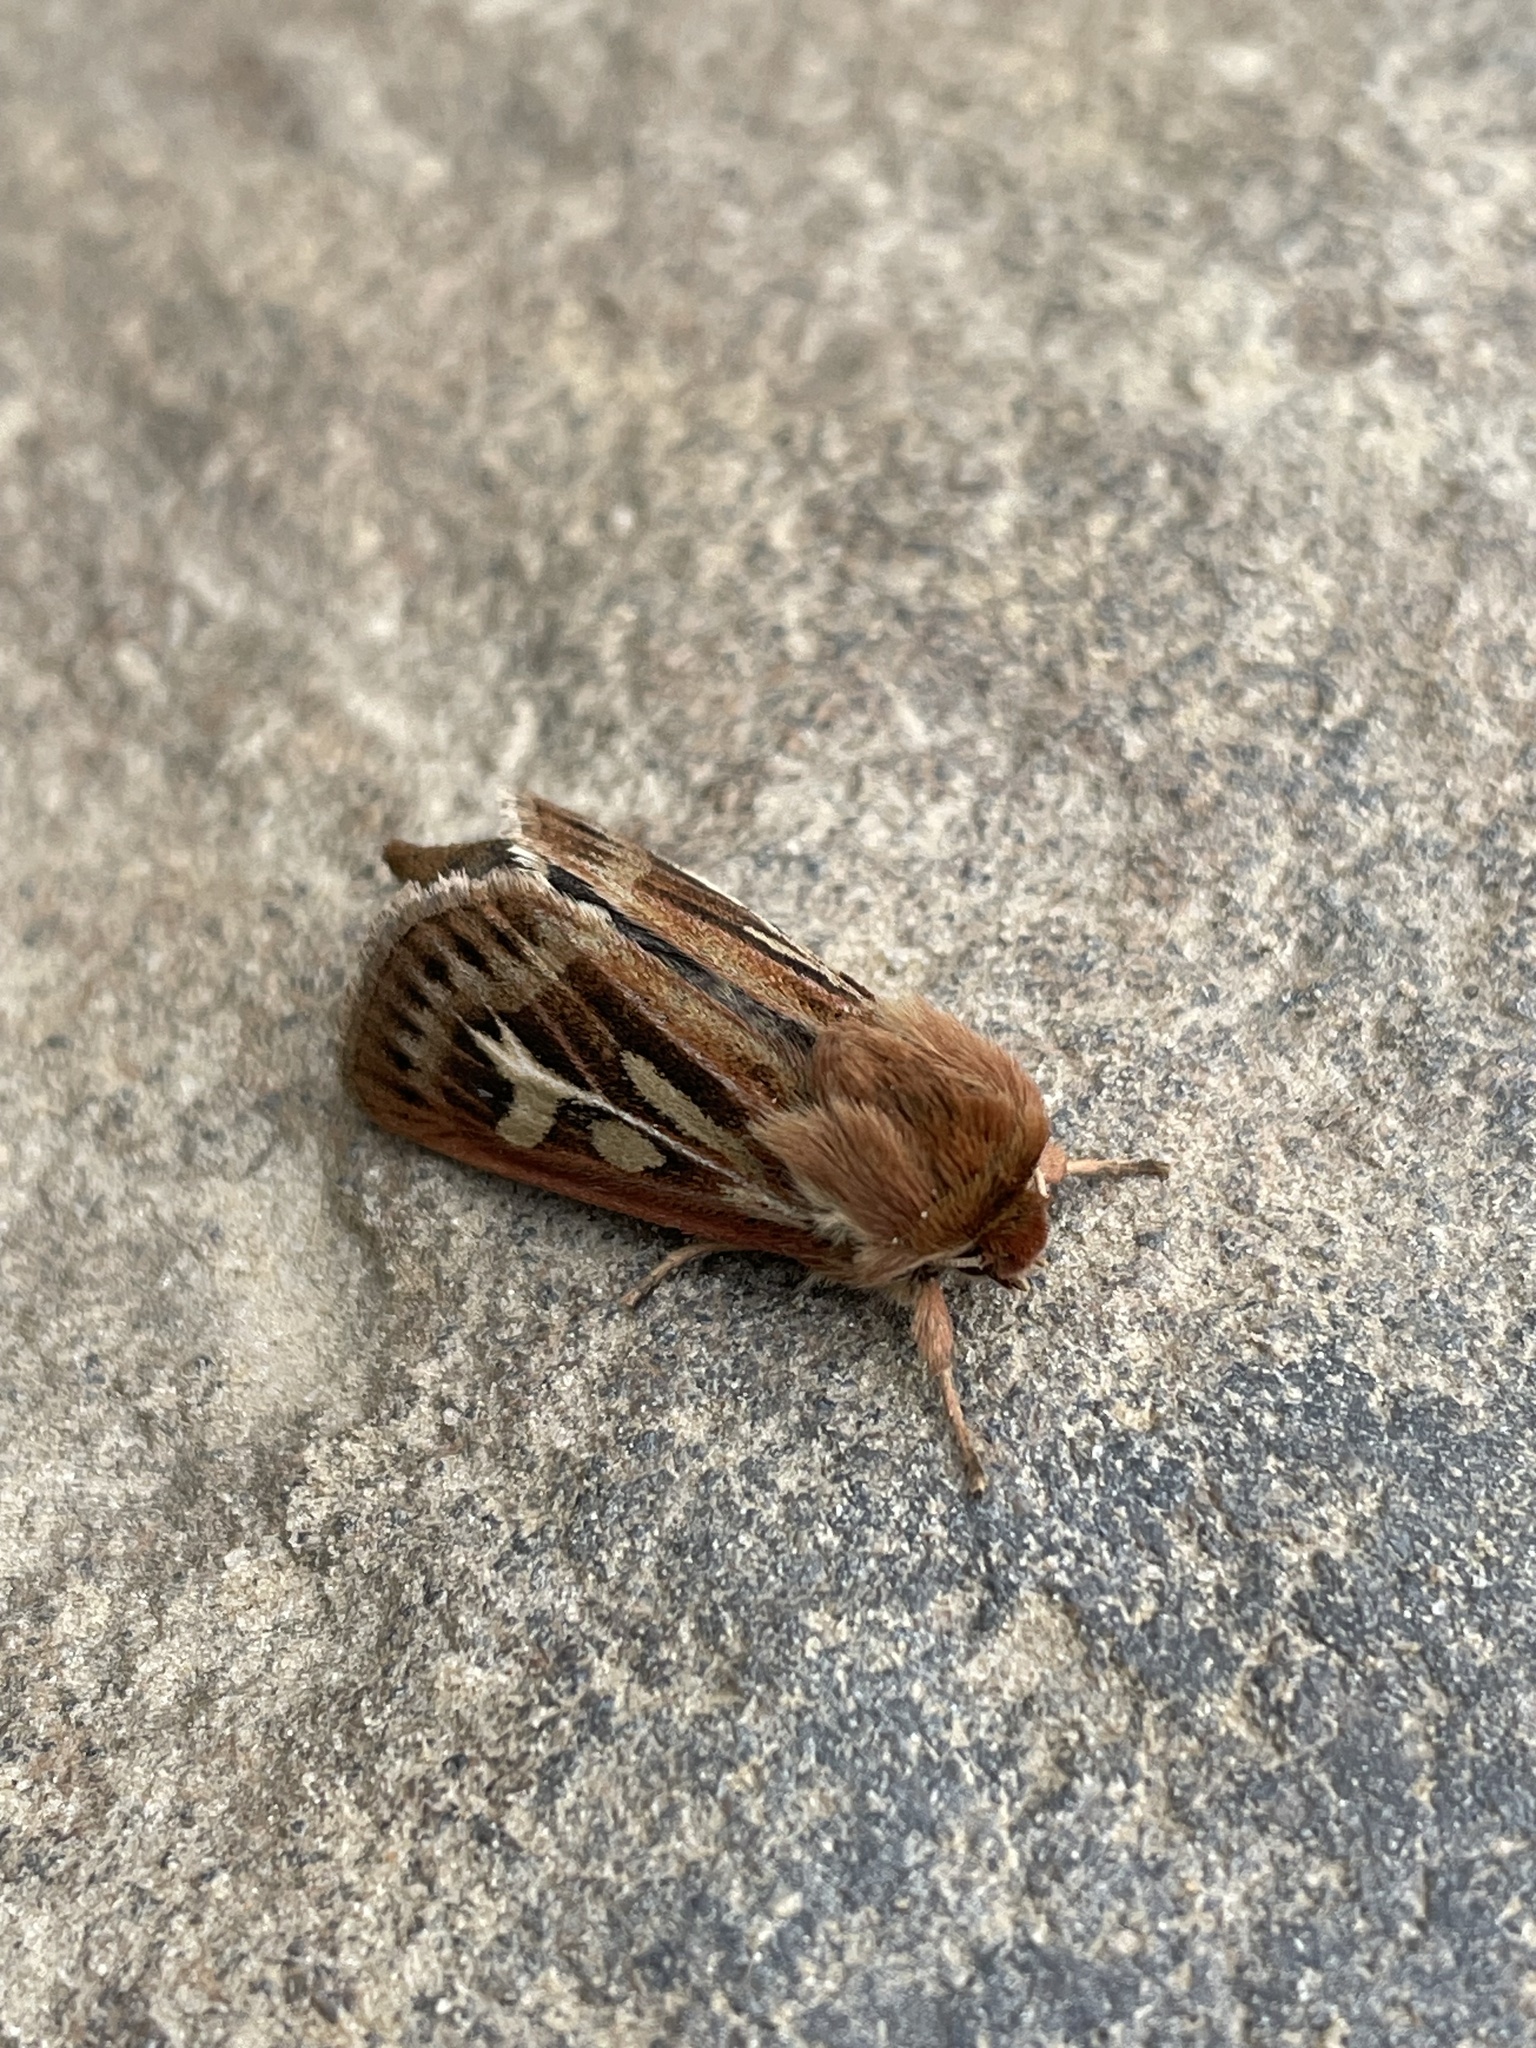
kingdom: Animalia
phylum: Arthropoda
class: Insecta
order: Lepidoptera
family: Noctuidae
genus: Cerapteryx
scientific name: Cerapteryx graminis
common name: Antler moth
